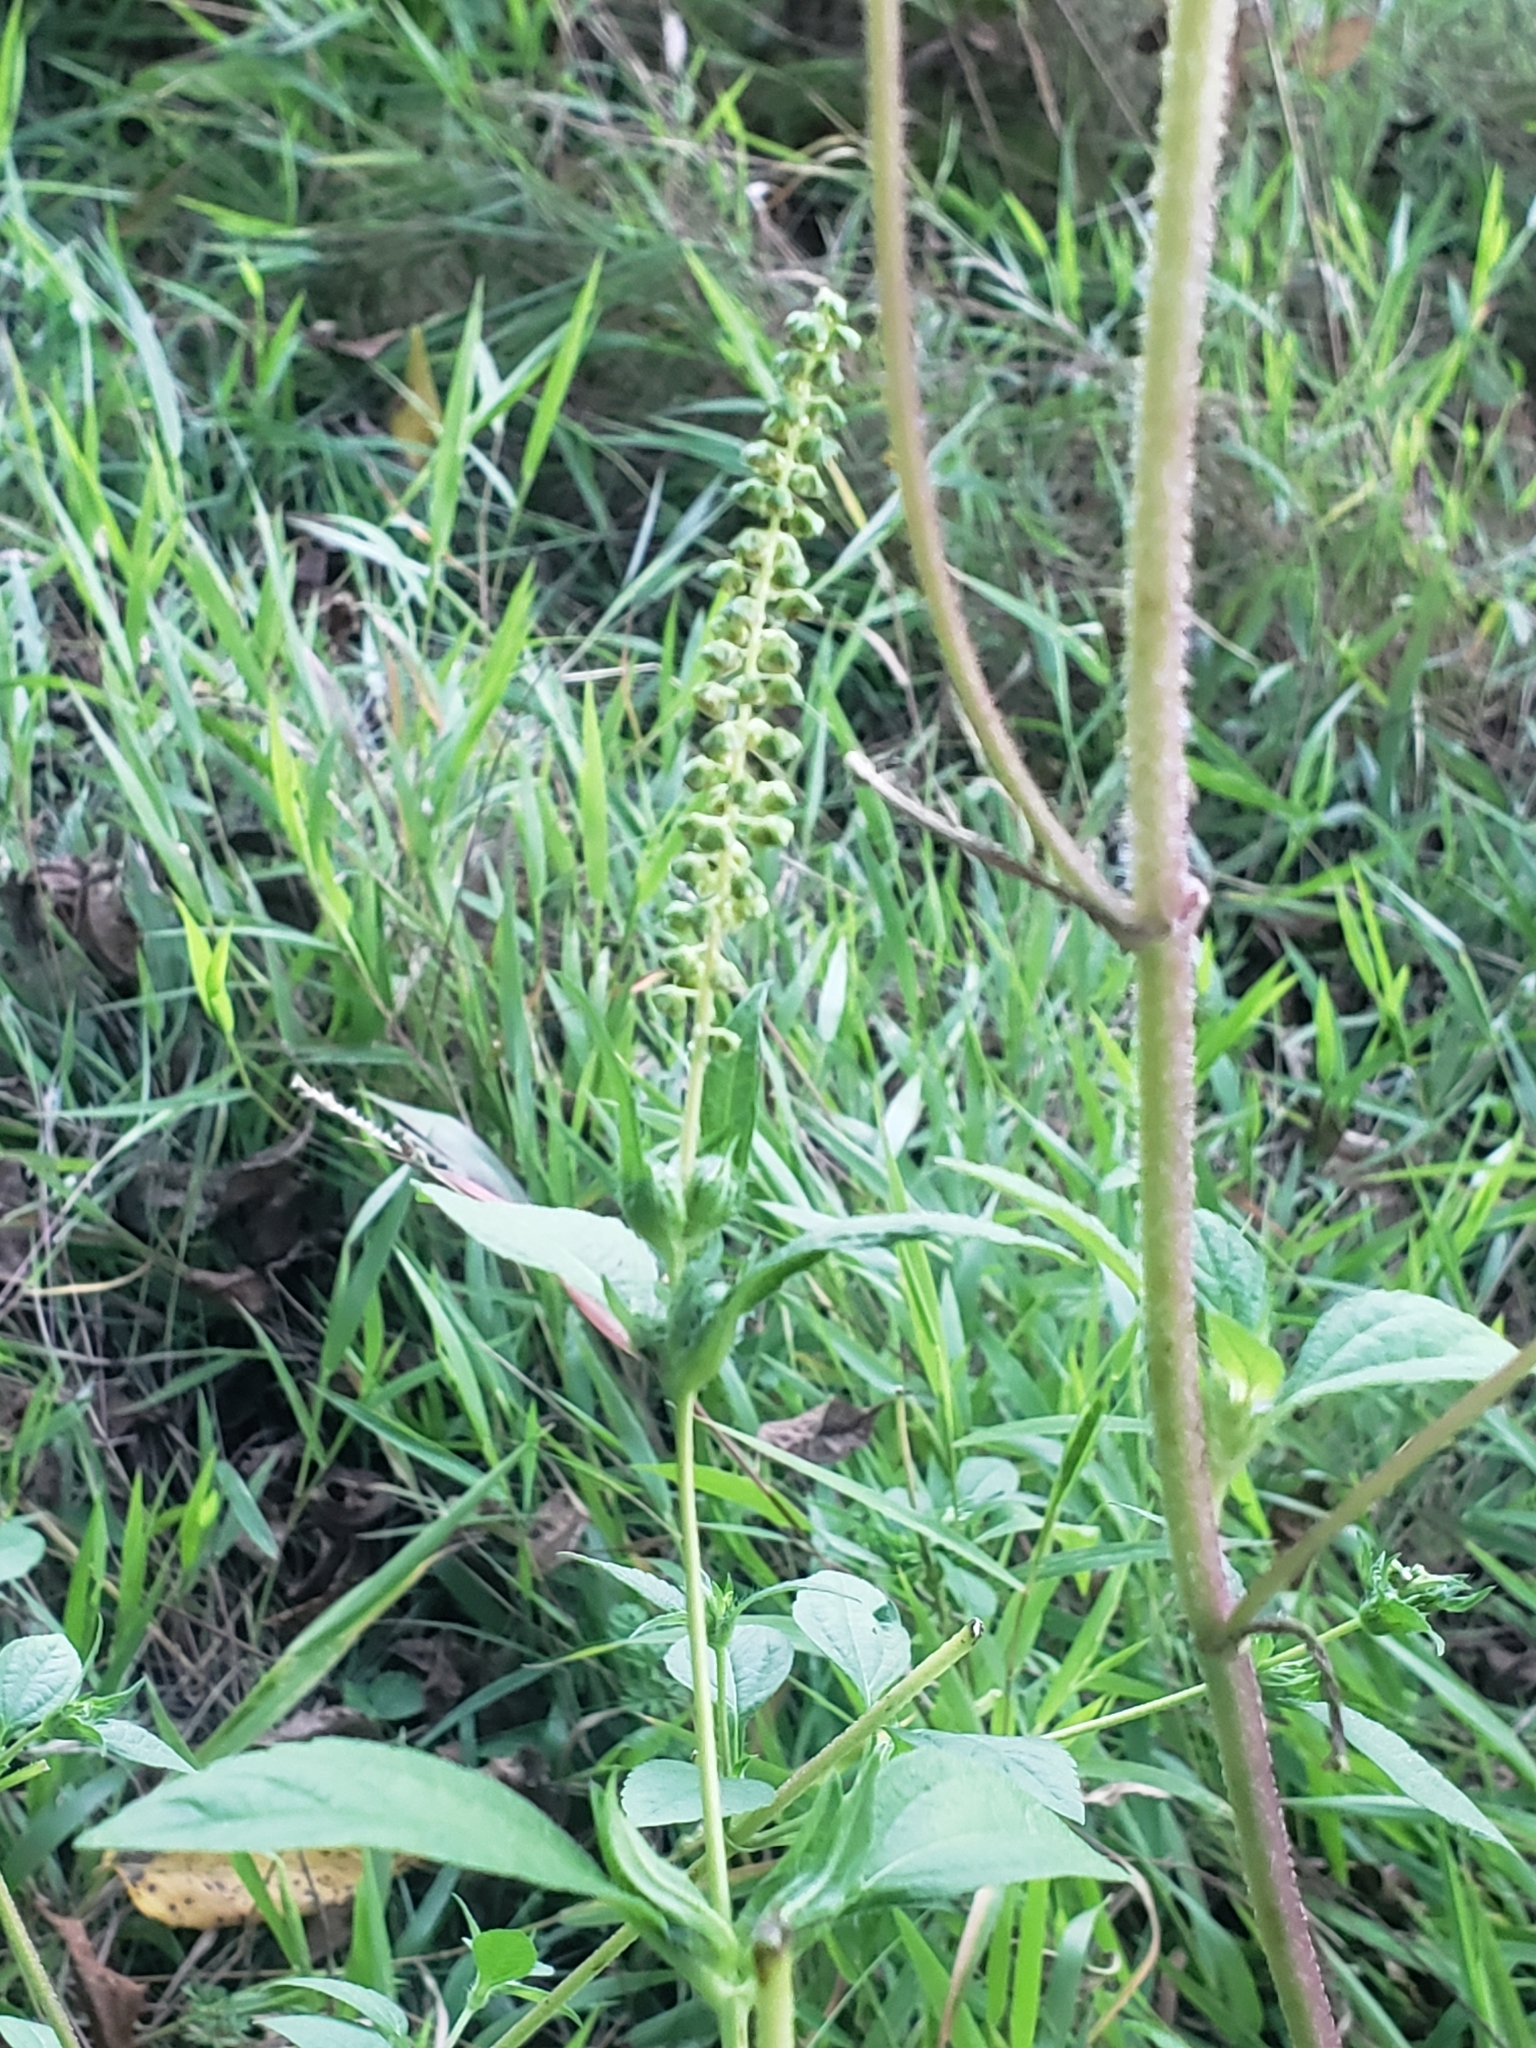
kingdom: Plantae
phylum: Tracheophyta
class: Magnoliopsida
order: Asterales
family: Asteraceae
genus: Ambrosia
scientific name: Ambrosia trifida
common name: Giant ragweed
